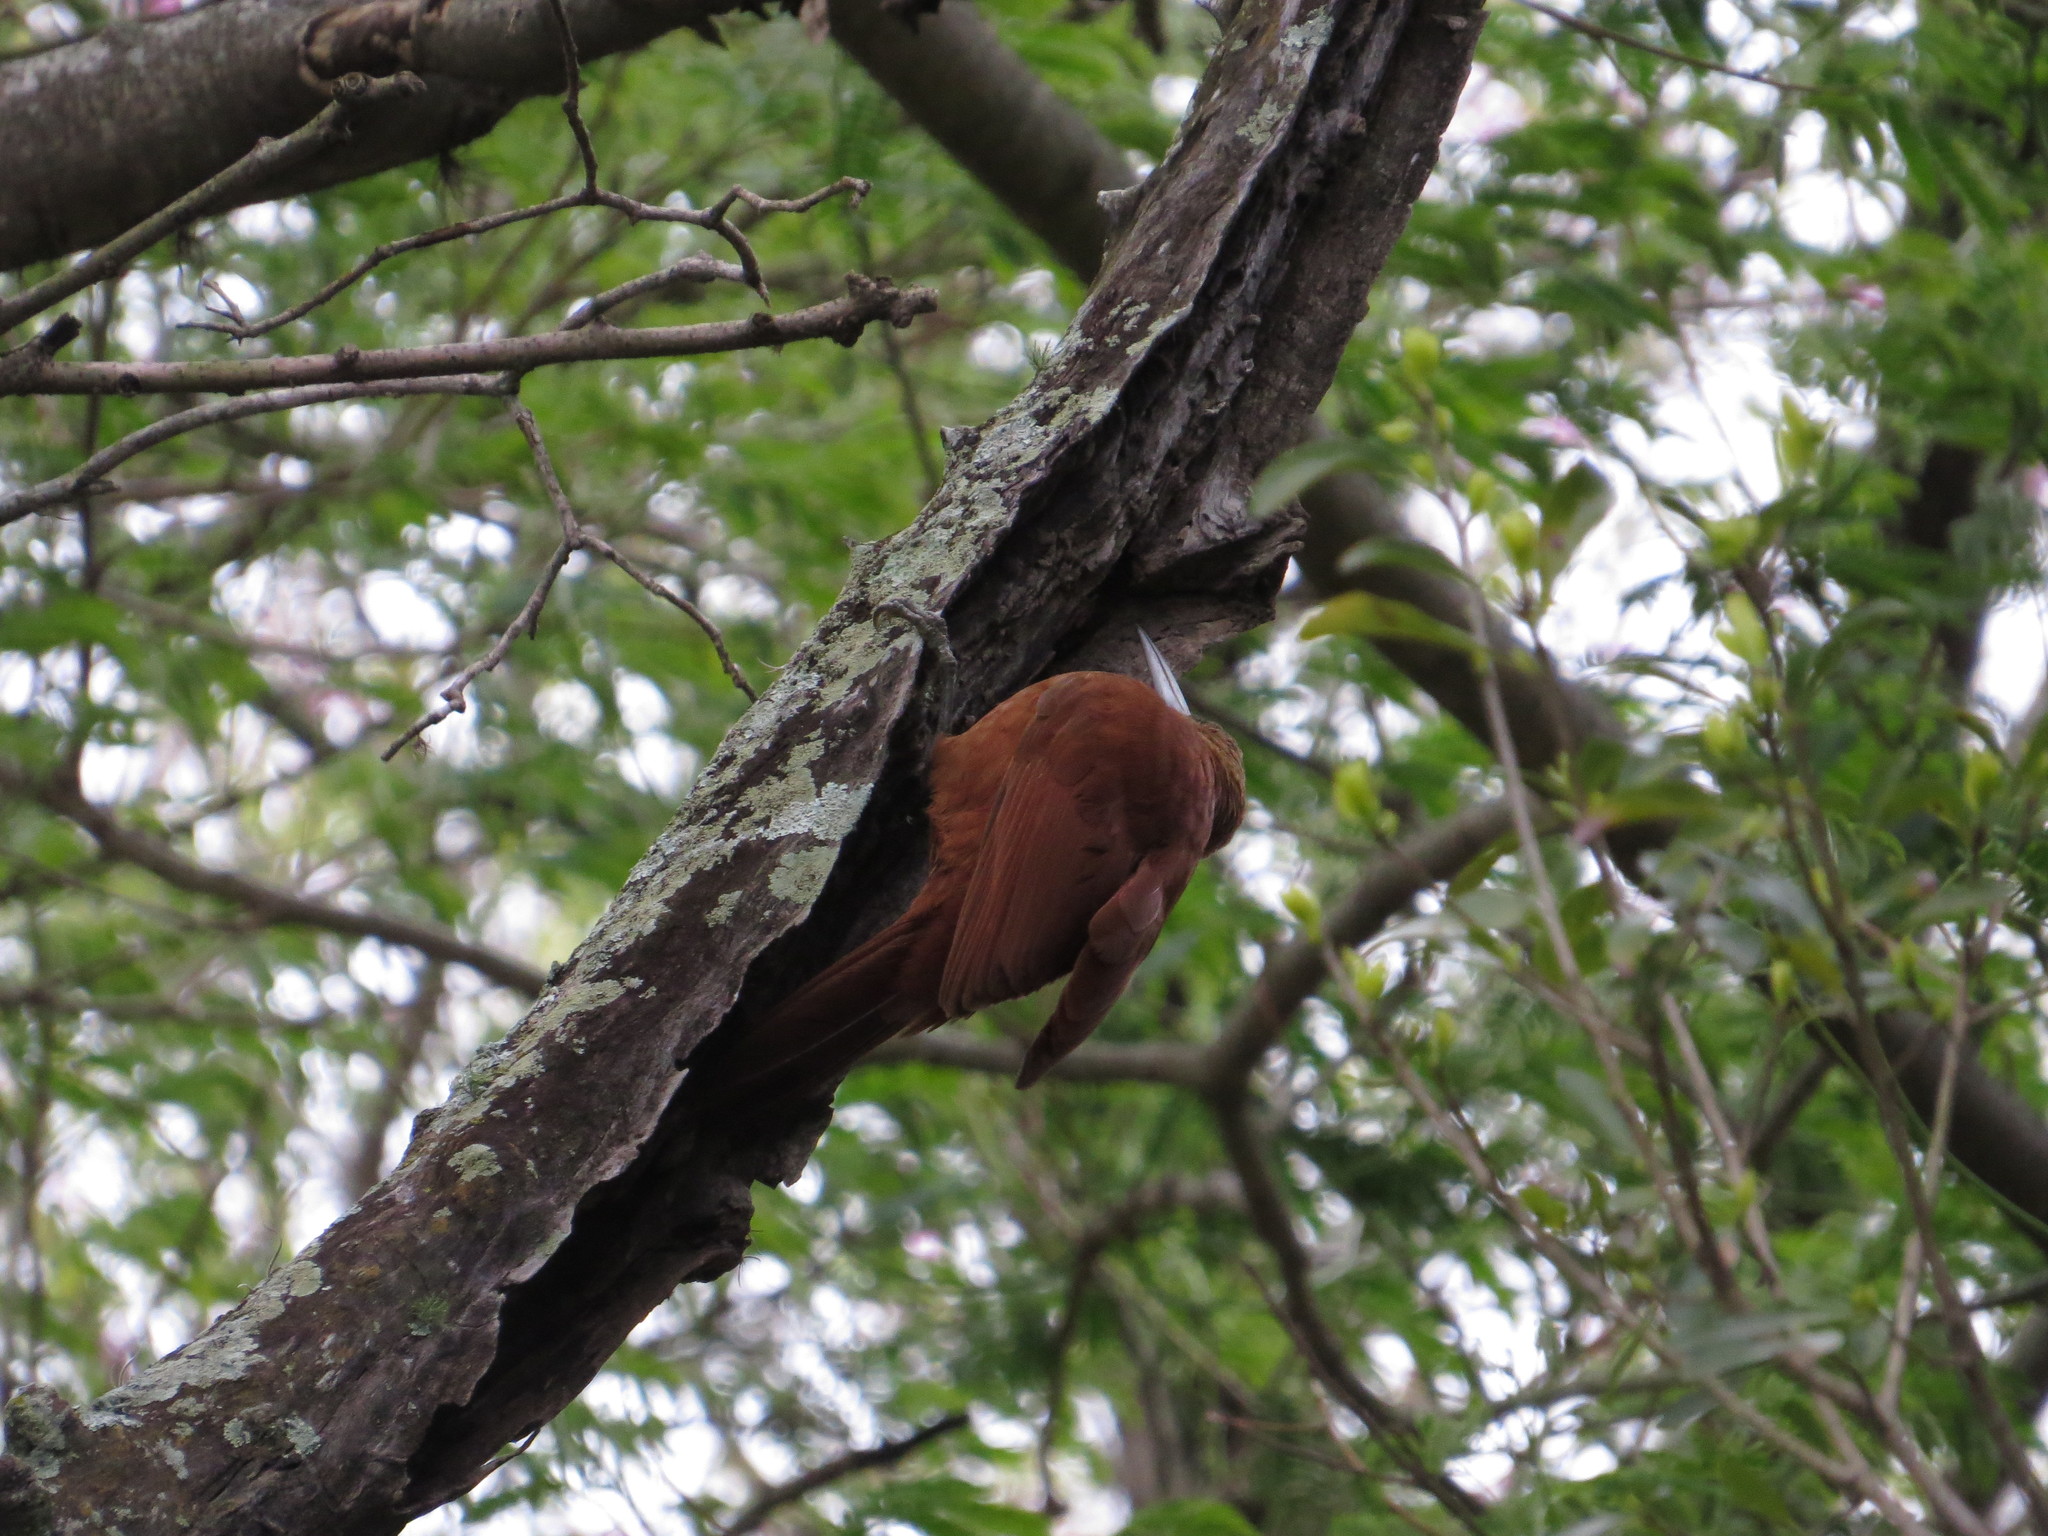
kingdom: Animalia
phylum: Chordata
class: Aves
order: Passeriformes
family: Furnariidae
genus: Xiphocolaptes
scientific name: Xiphocolaptes major
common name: Great rufous woodcreeper
